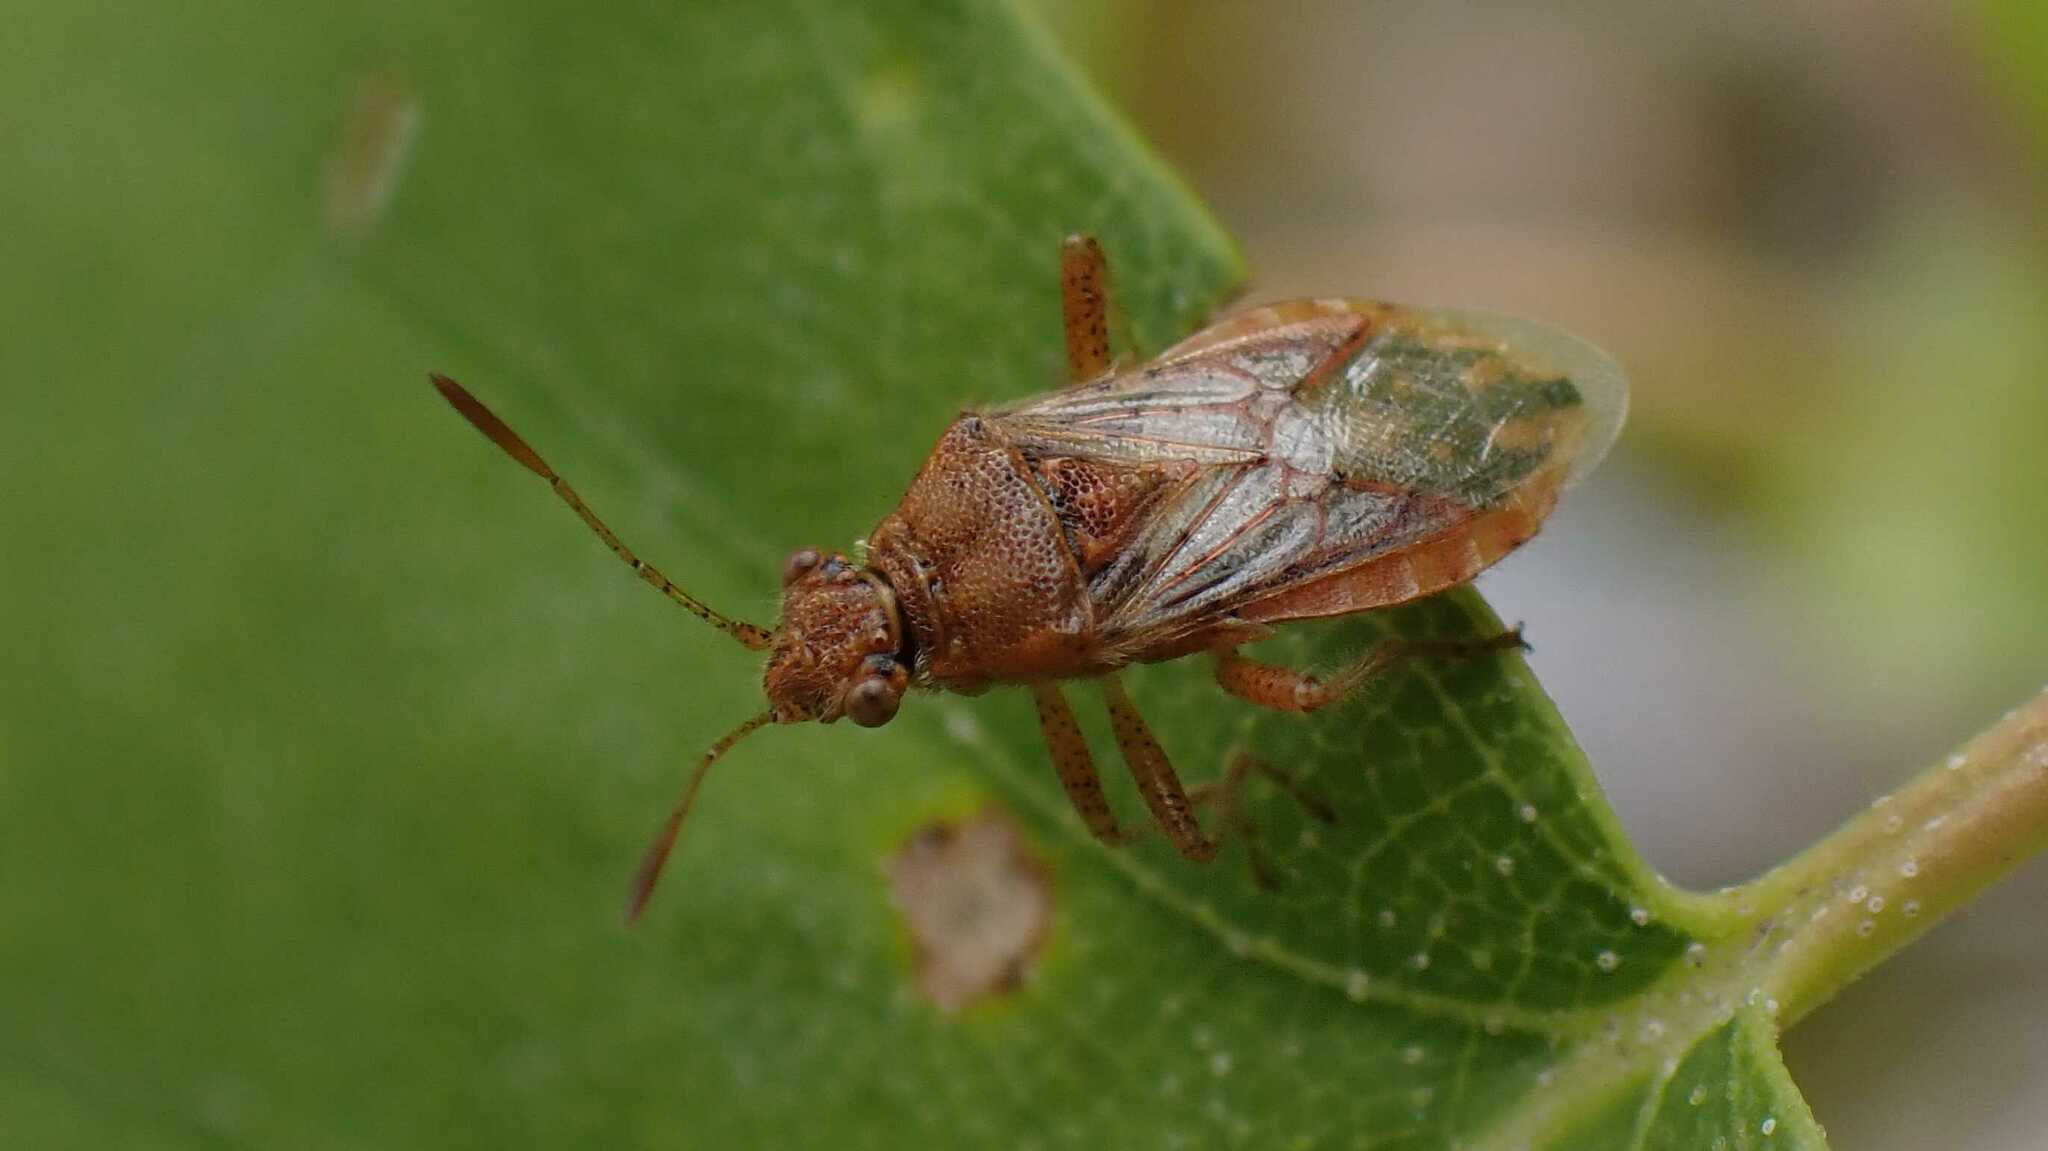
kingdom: Animalia
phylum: Arthropoda
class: Insecta
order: Hemiptera
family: Rhopalidae
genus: Rhopalus
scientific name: Rhopalus parumpunctatus
